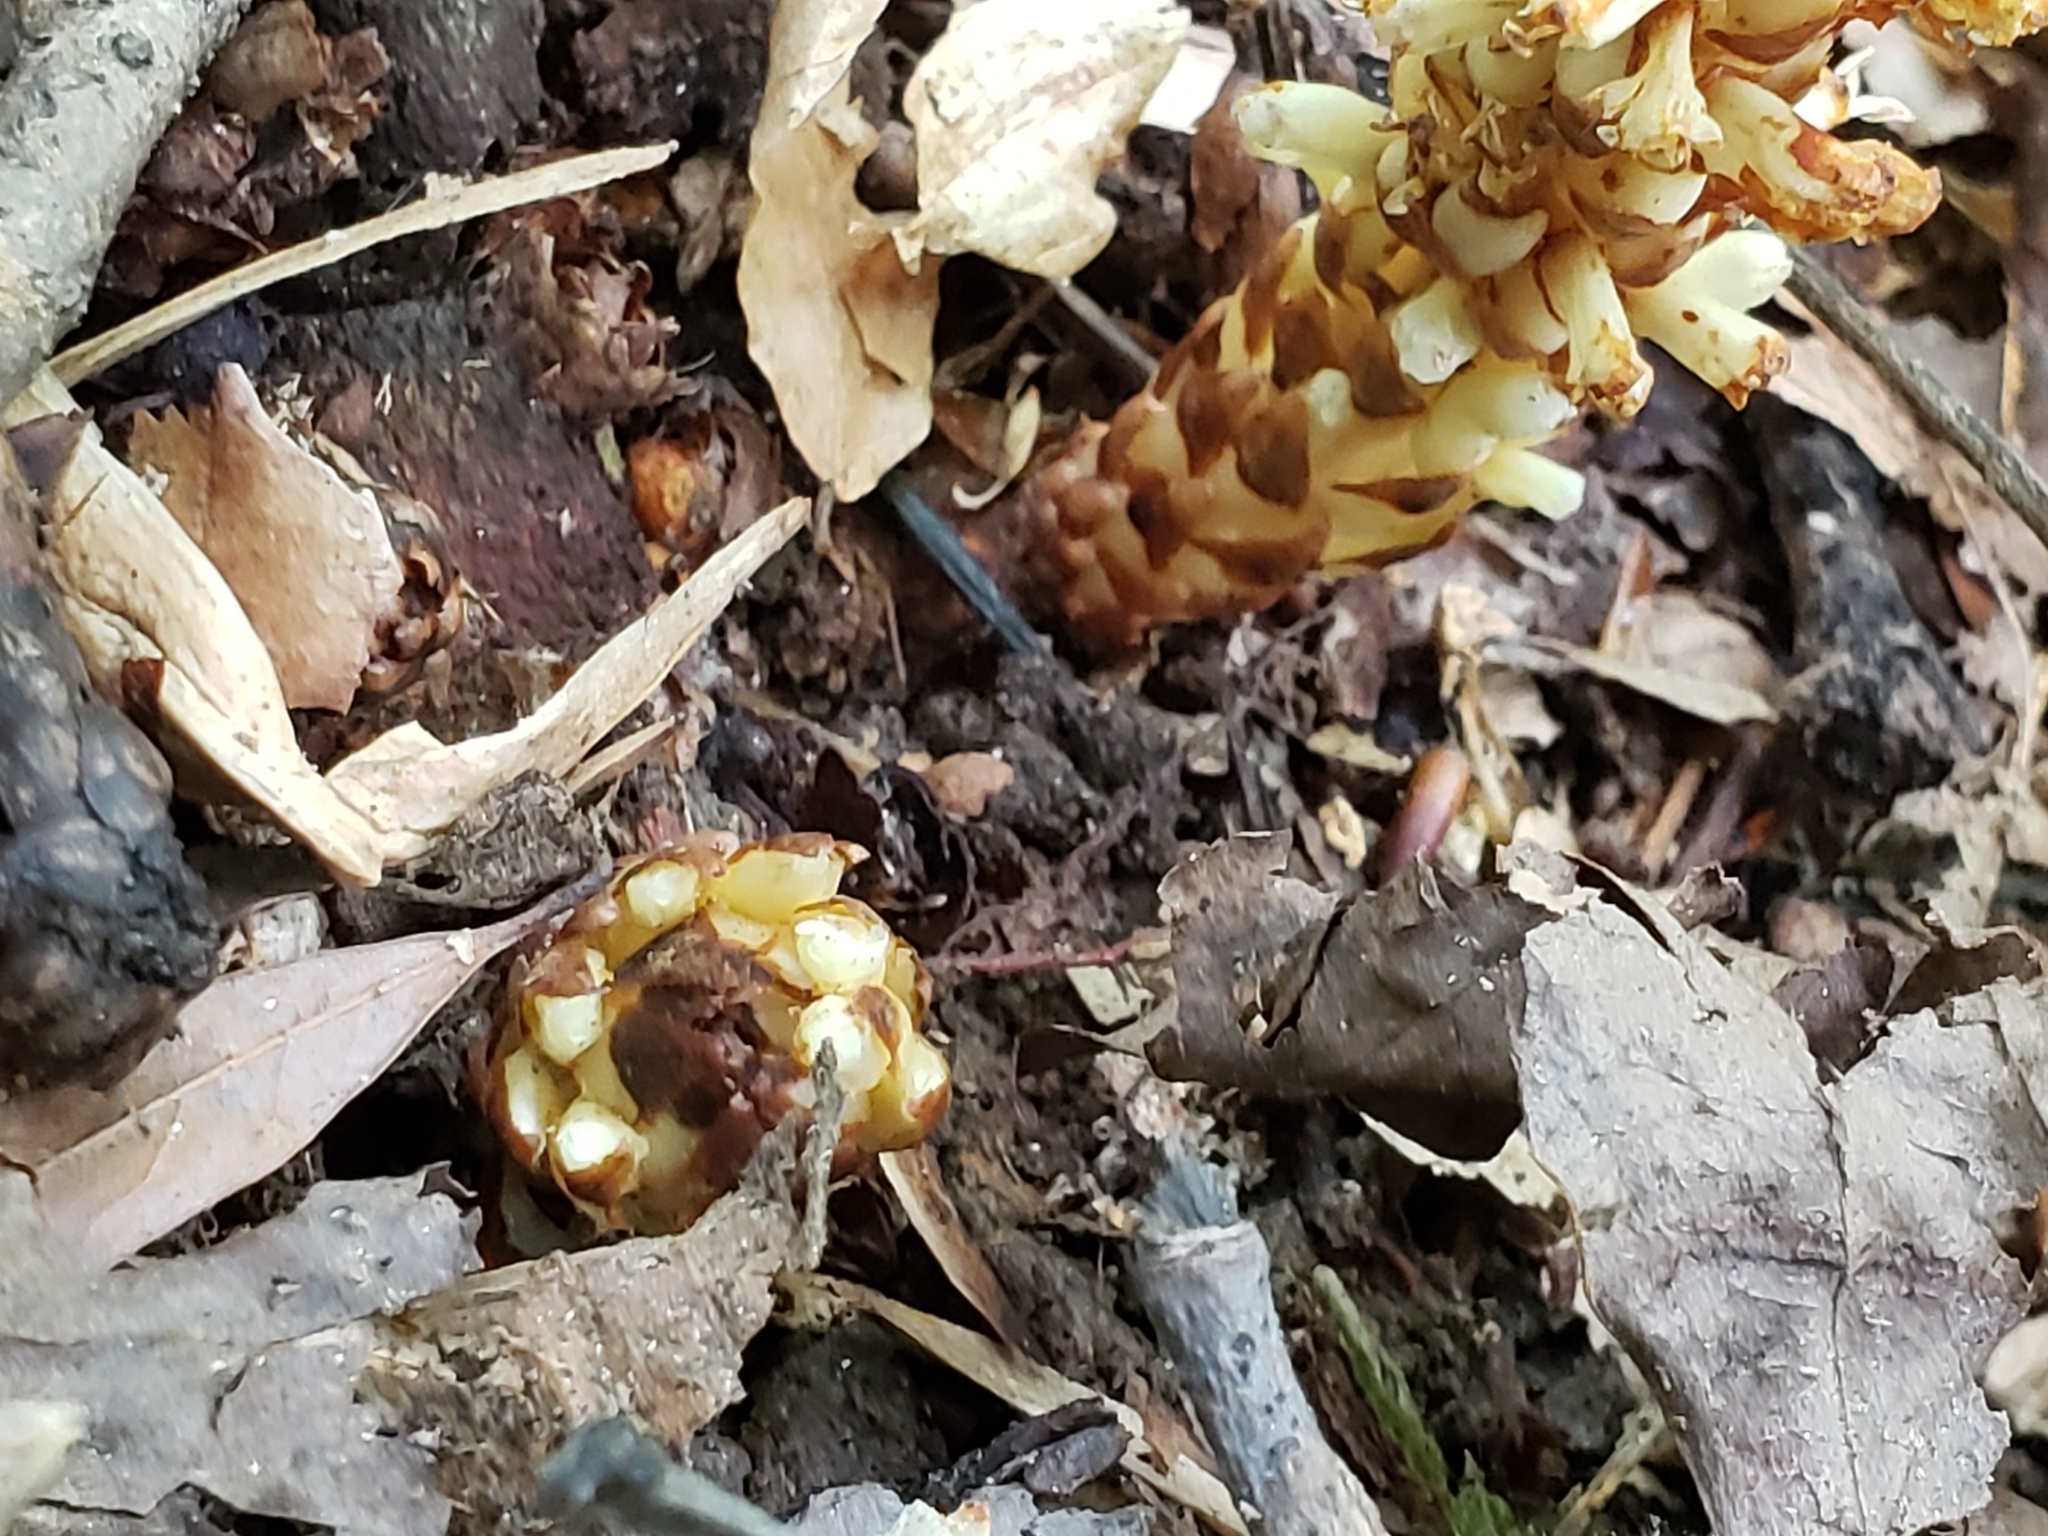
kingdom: Plantae
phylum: Tracheophyta
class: Magnoliopsida
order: Lamiales
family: Orobanchaceae
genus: Conopholis
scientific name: Conopholis americana
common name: American cancer-root
